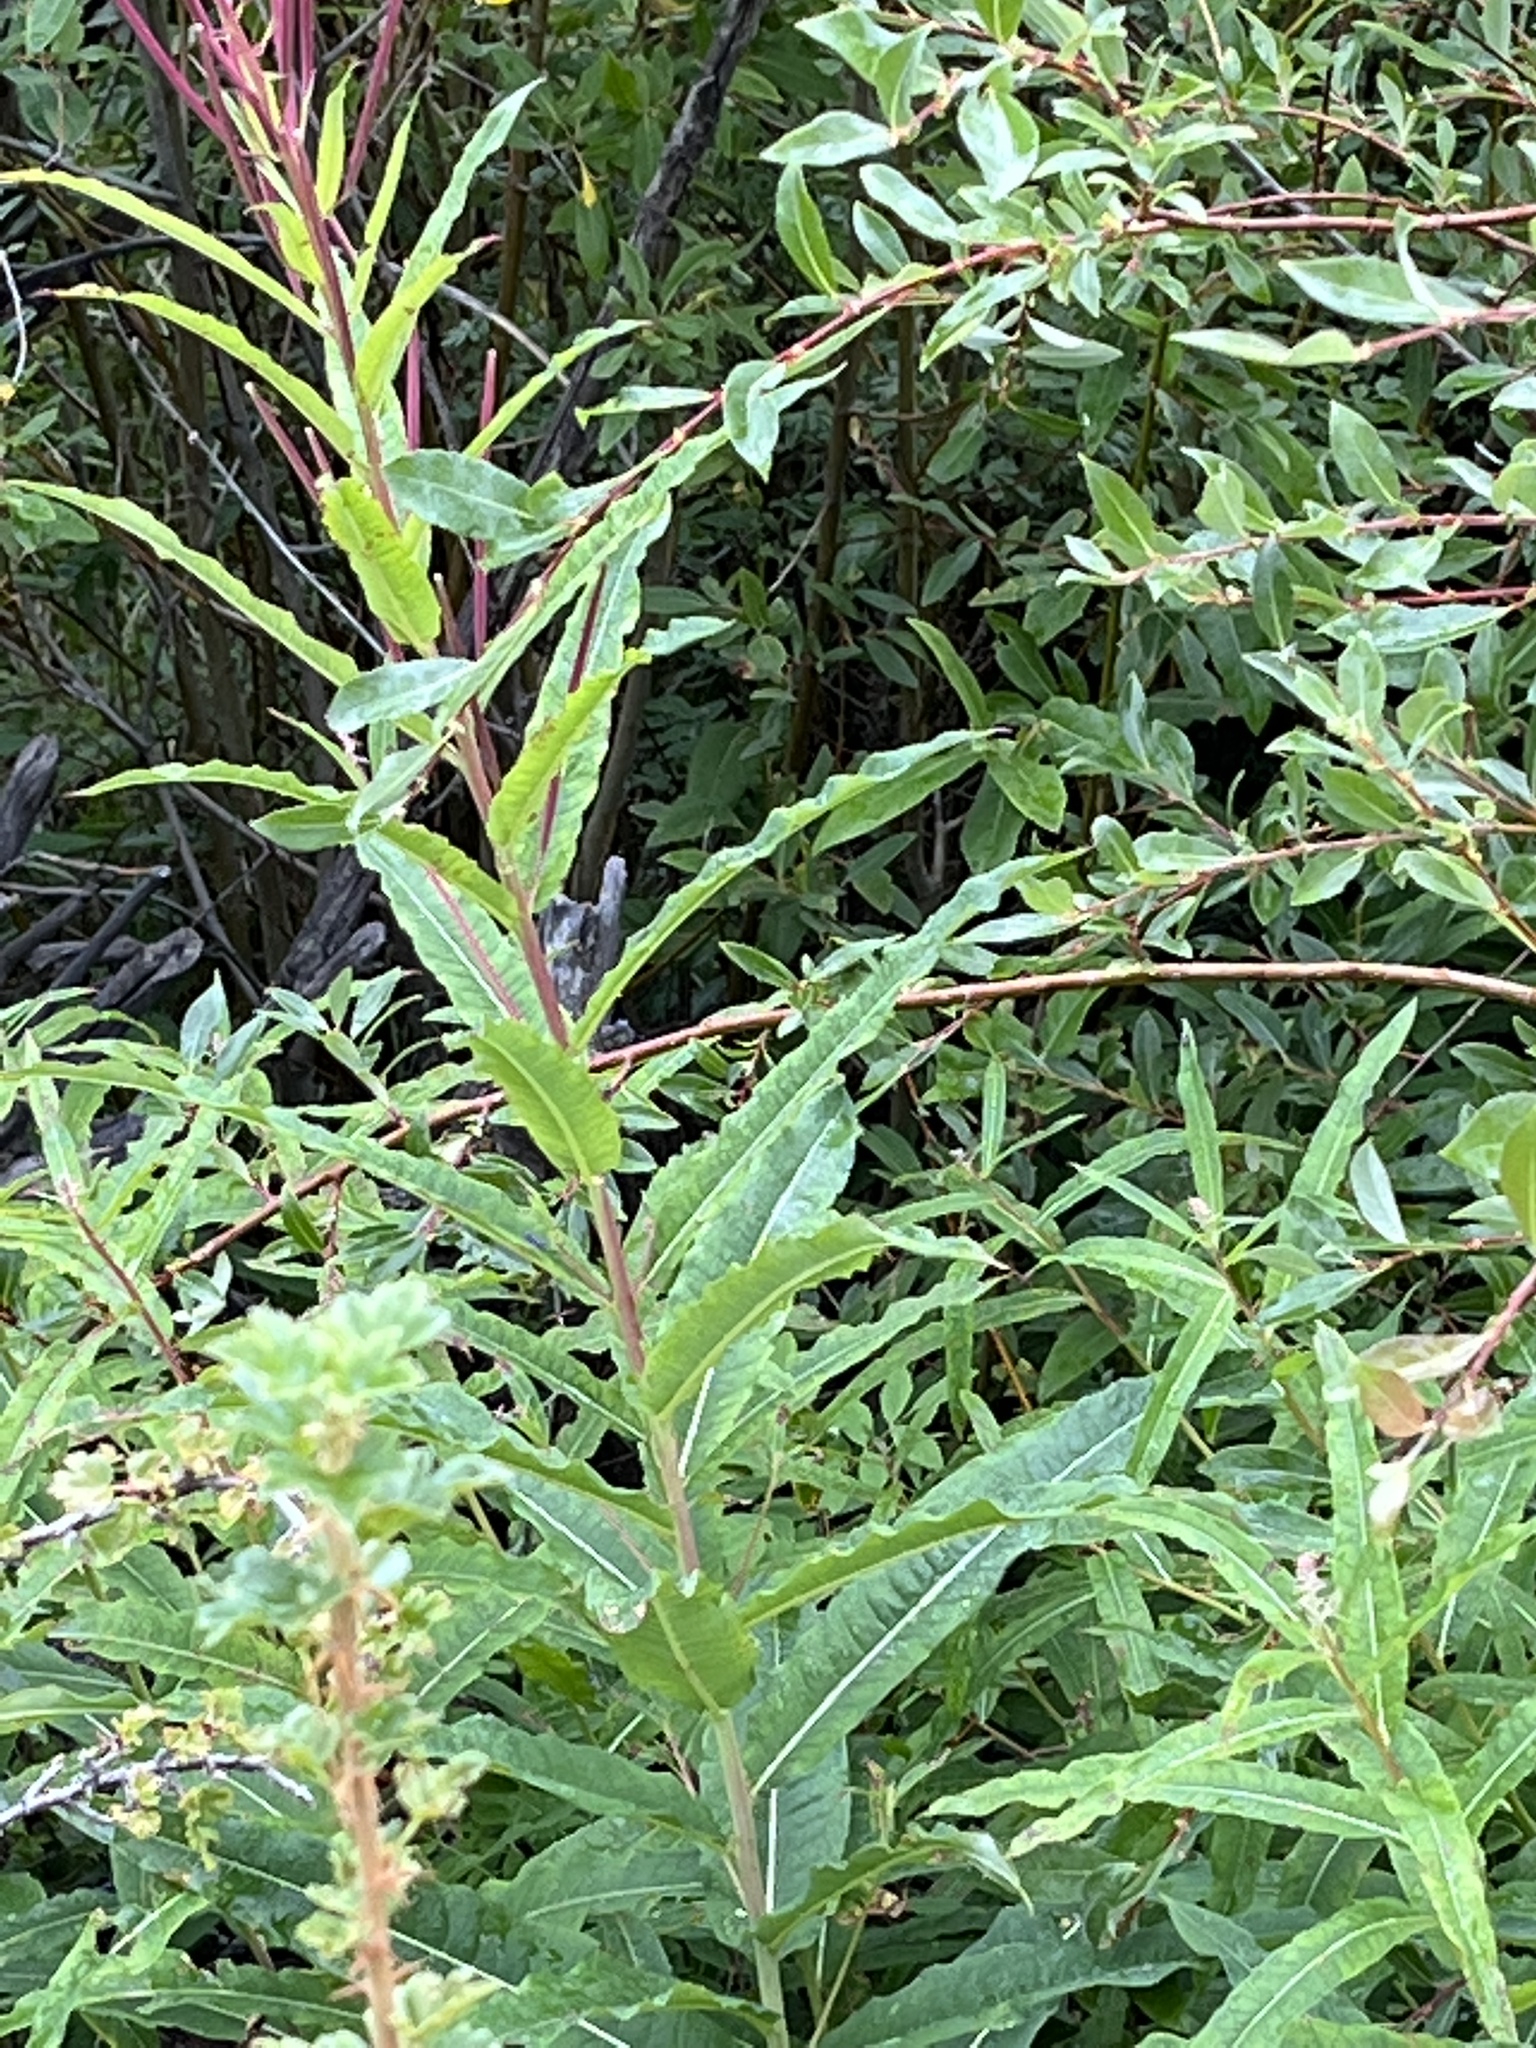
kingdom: Plantae
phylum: Tracheophyta
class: Magnoliopsida
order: Myrtales
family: Onagraceae
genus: Chamaenerion
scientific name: Chamaenerion angustifolium
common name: Fireweed
